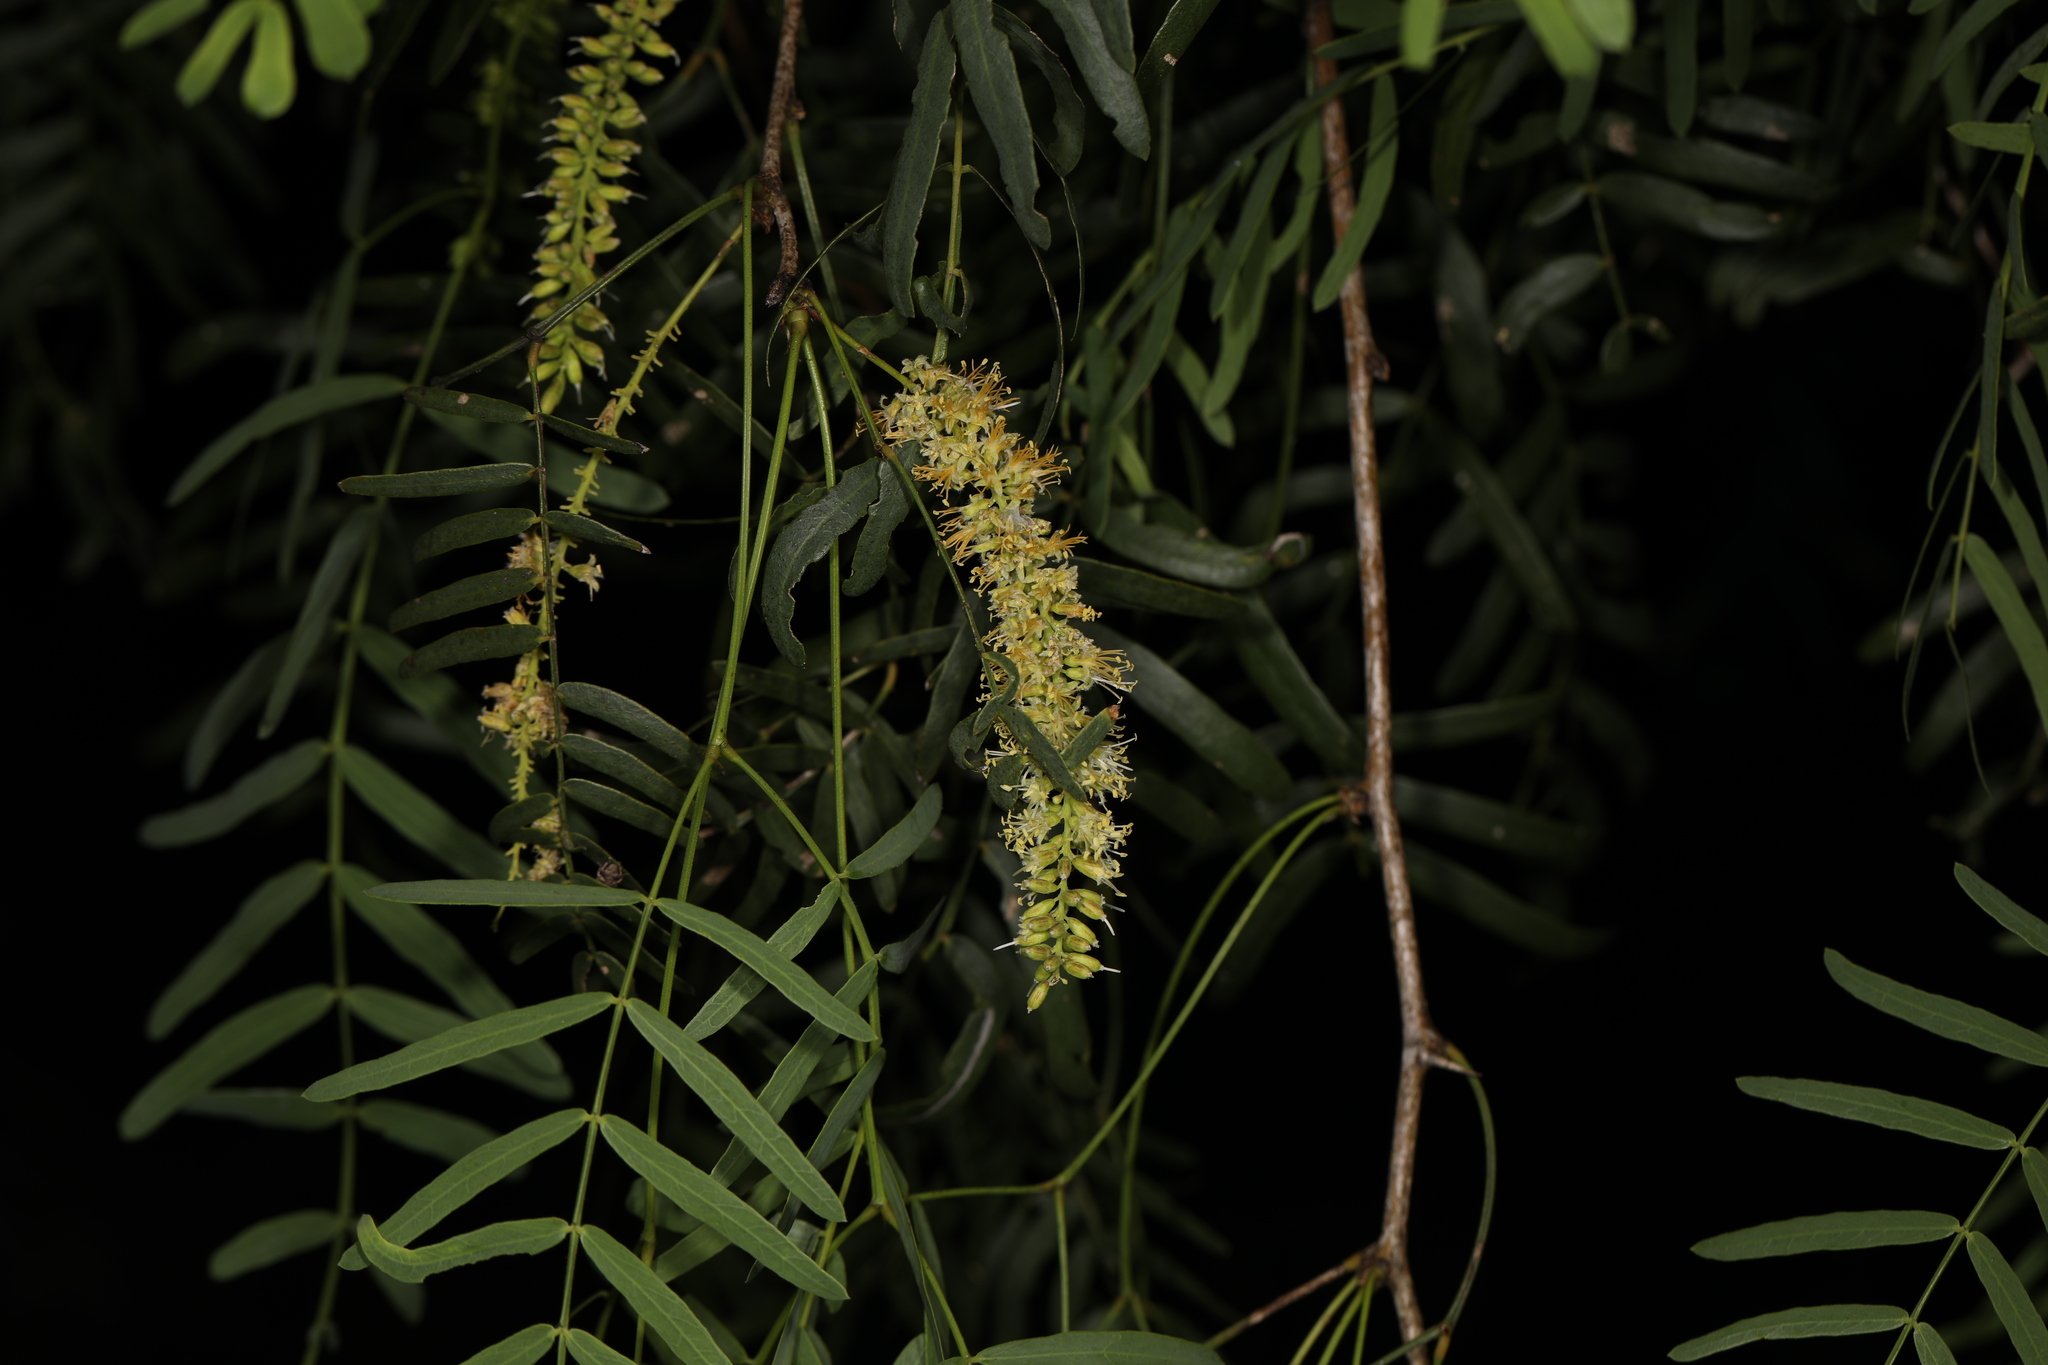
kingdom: Plantae
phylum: Tracheophyta
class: Magnoliopsida
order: Fabales
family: Fabaceae
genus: Prosopis
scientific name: Prosopis glandulosa
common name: Honey mesquite
